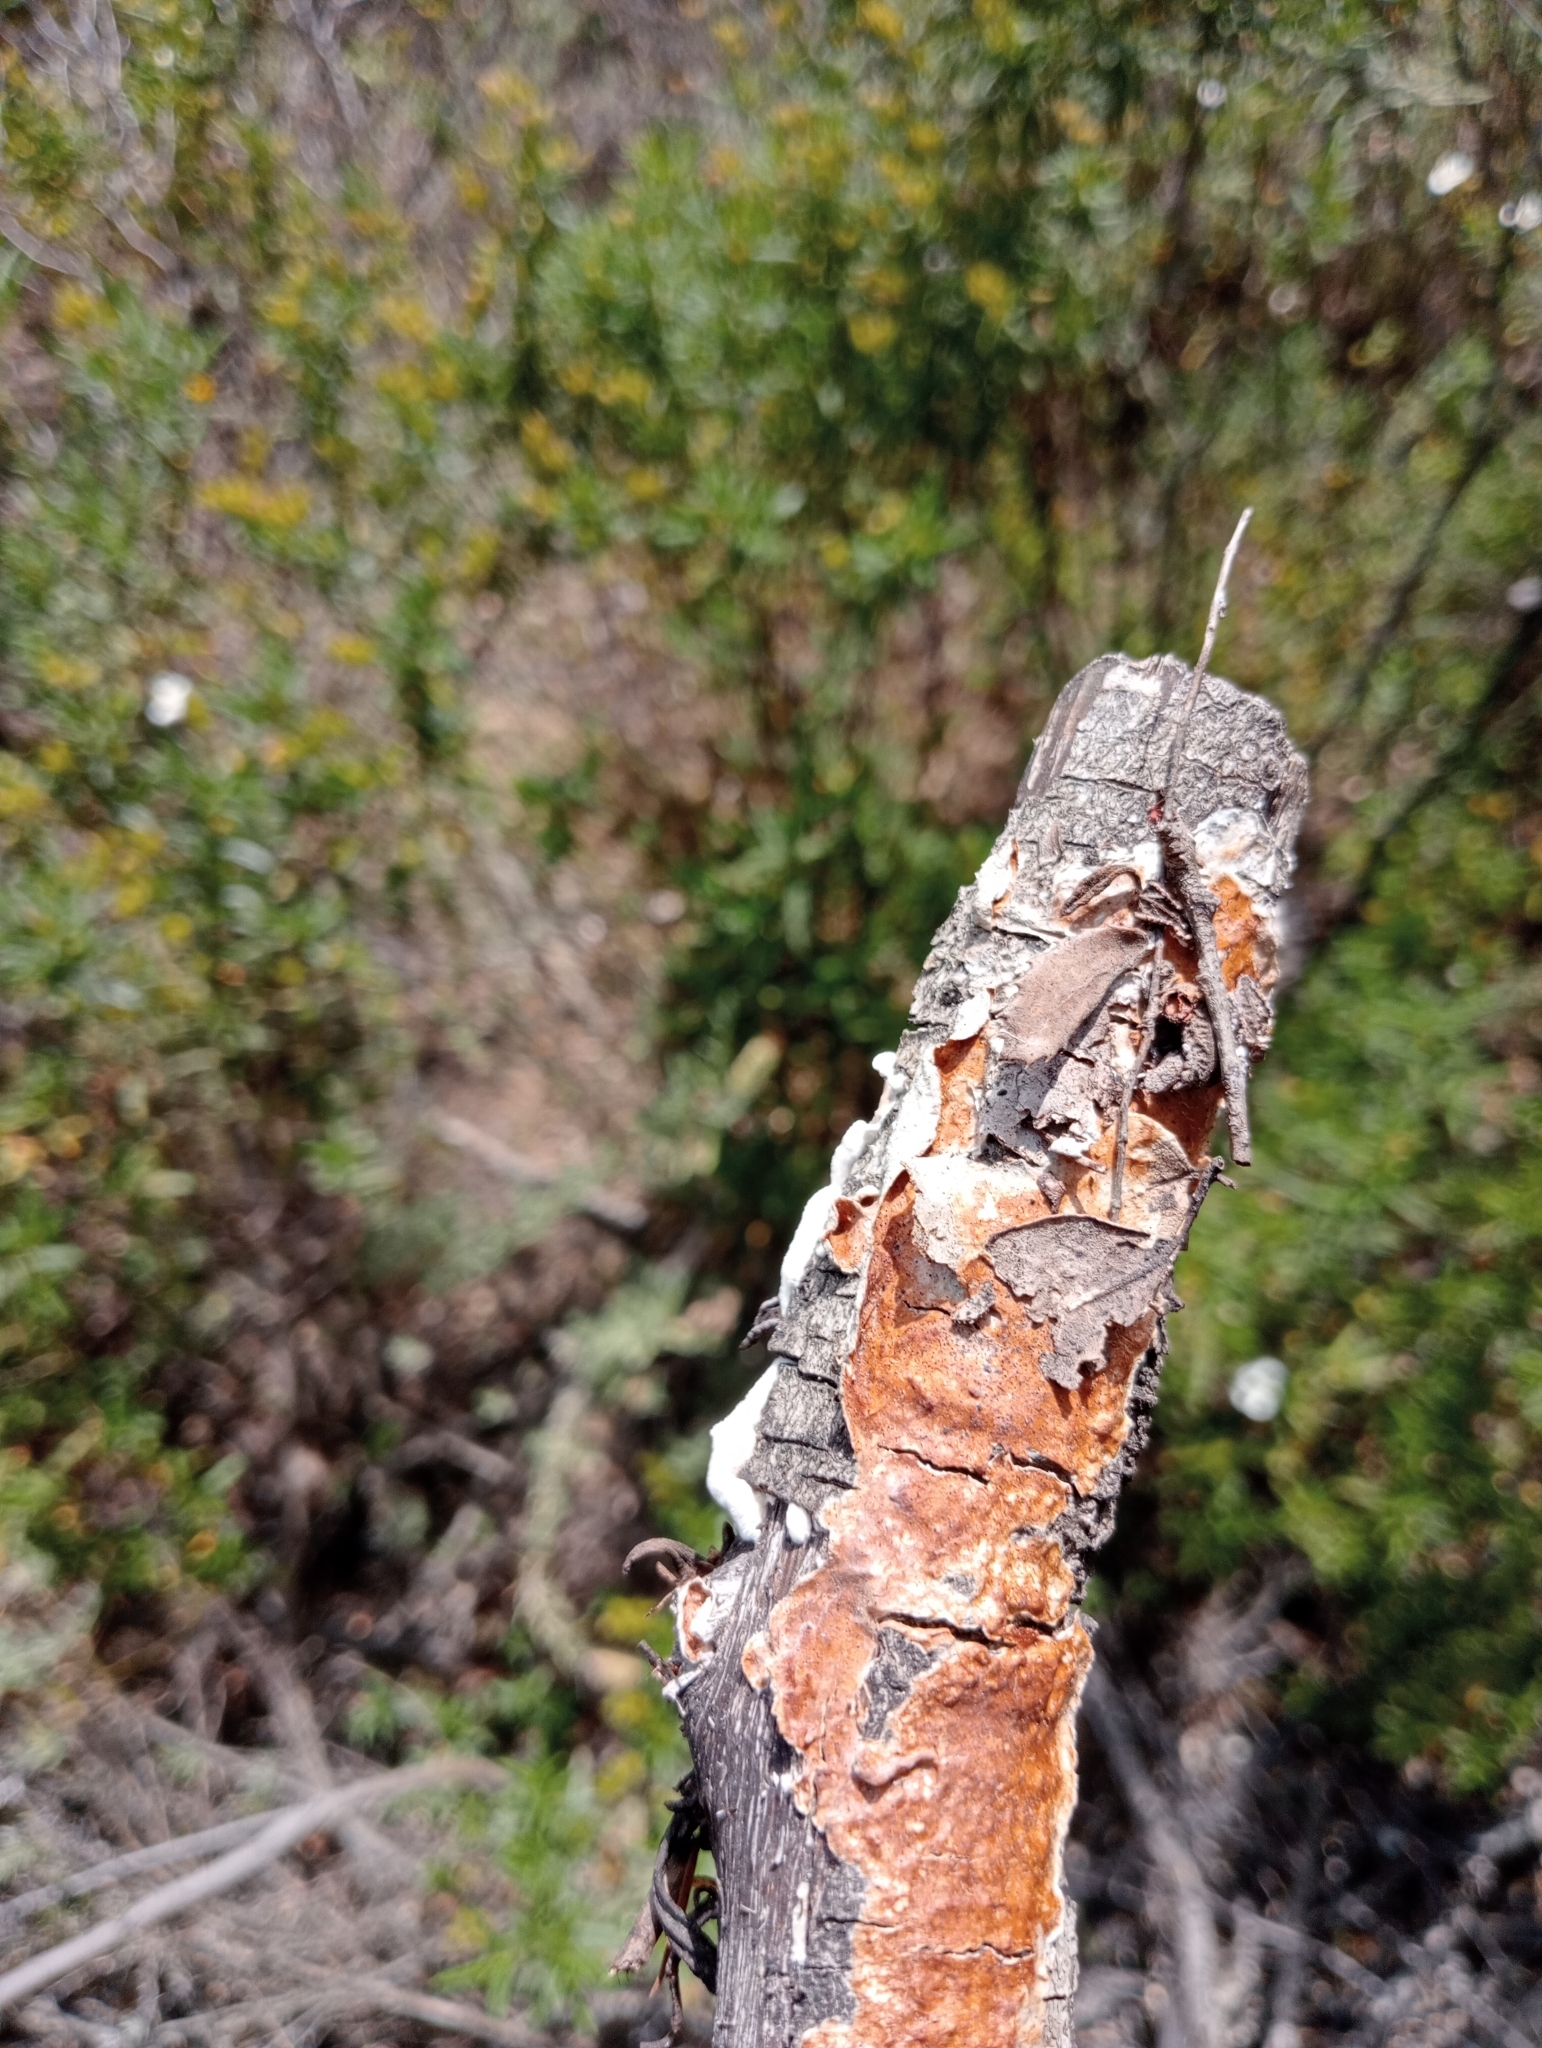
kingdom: Fungi
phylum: Basidiomycota
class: Agaricomycetes
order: Polyporales
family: Irpicaceae
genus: Vitreoporus
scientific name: Vitreoporus dichrous
